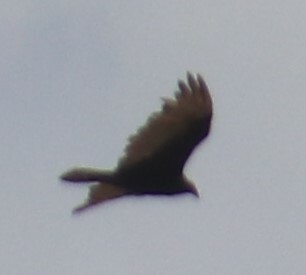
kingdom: Animalia
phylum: Chordata
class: Aves
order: Accipitriformes
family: Cathartidae
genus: Cathartes
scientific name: Cathartes aura
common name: Turkey vulture
